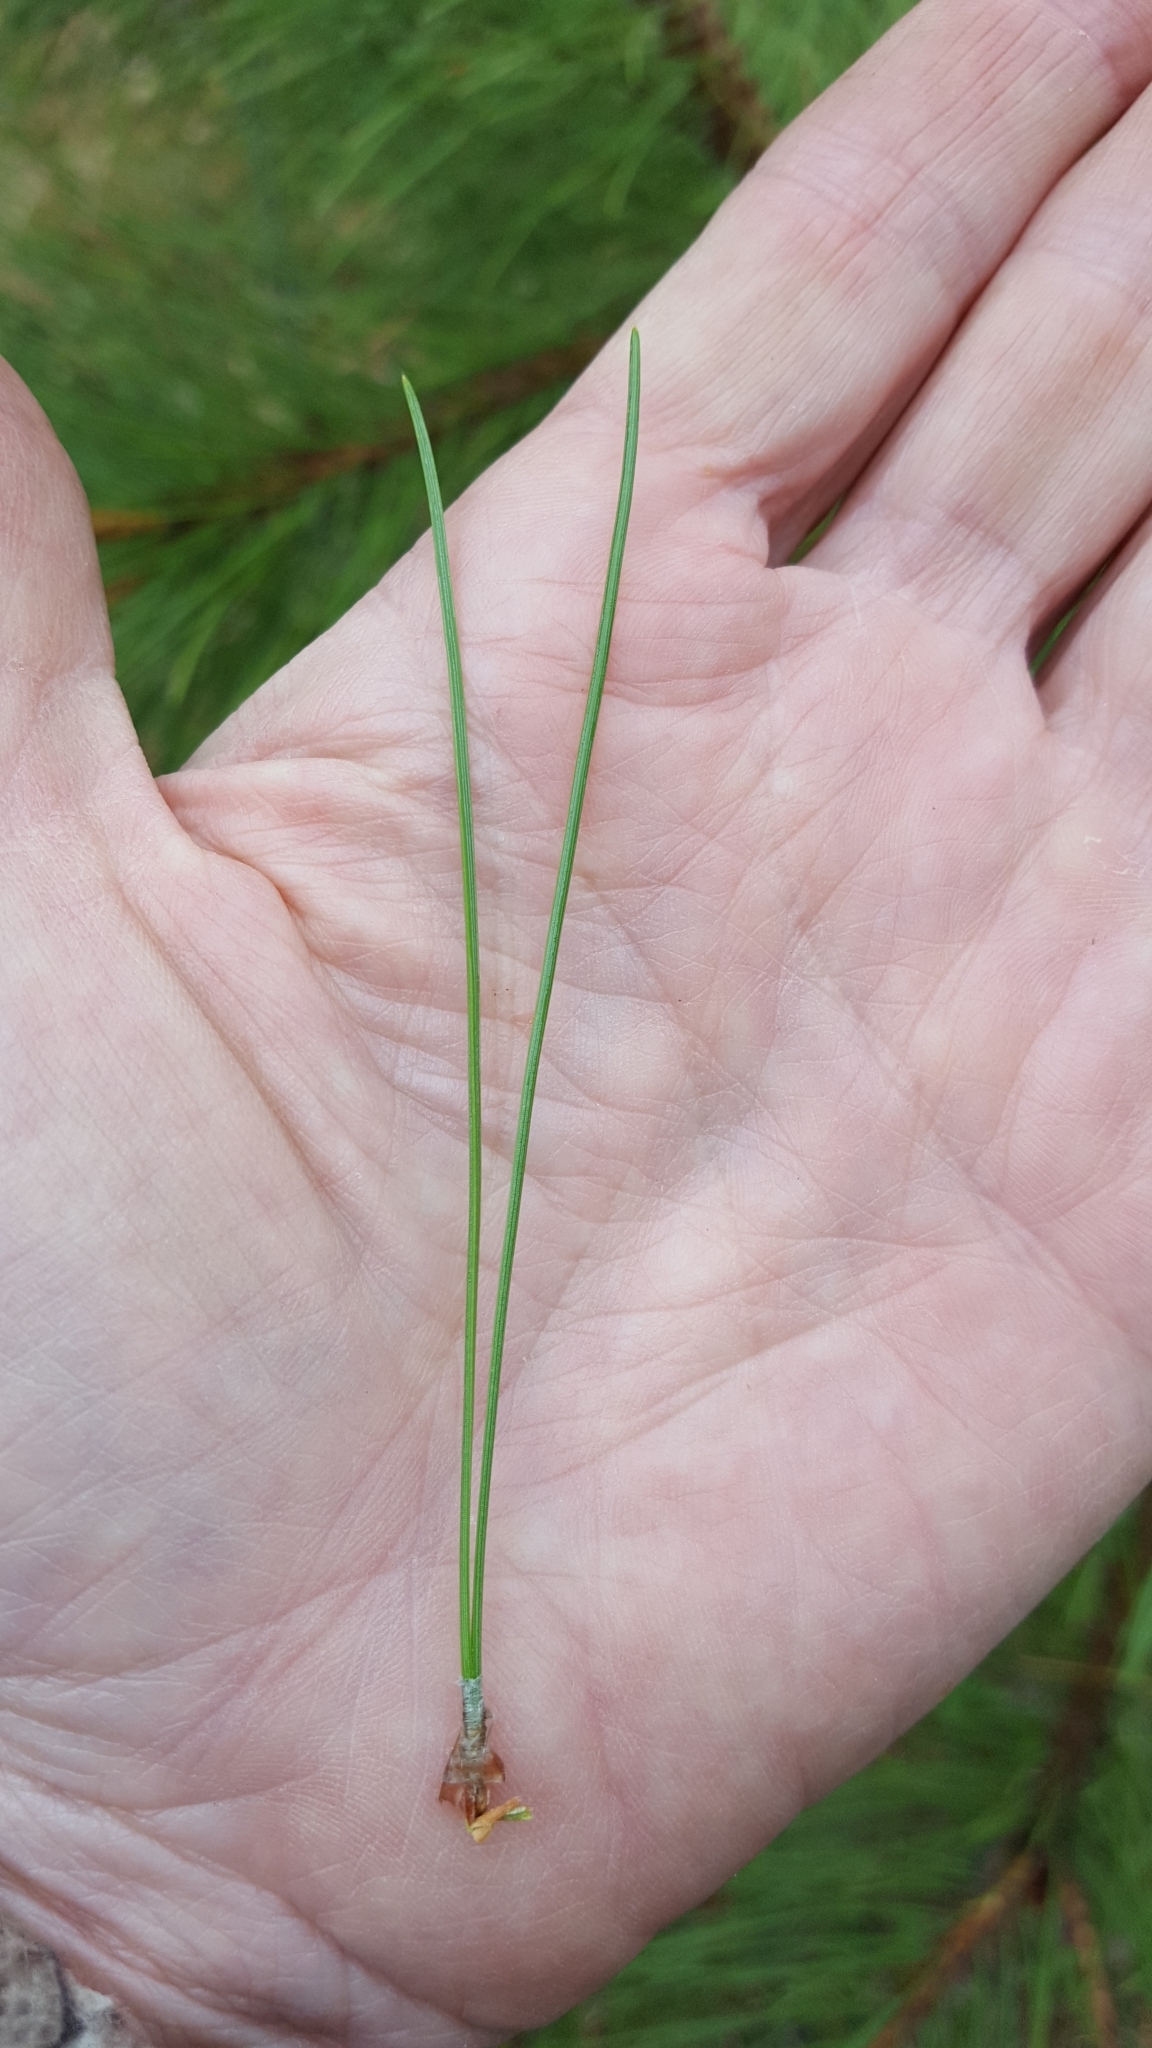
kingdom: Plantae
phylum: Tracheophyta
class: Pinopsida
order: Pinales
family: Pinaceae
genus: Pinus
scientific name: Pinus resinosa
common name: Norway pine
